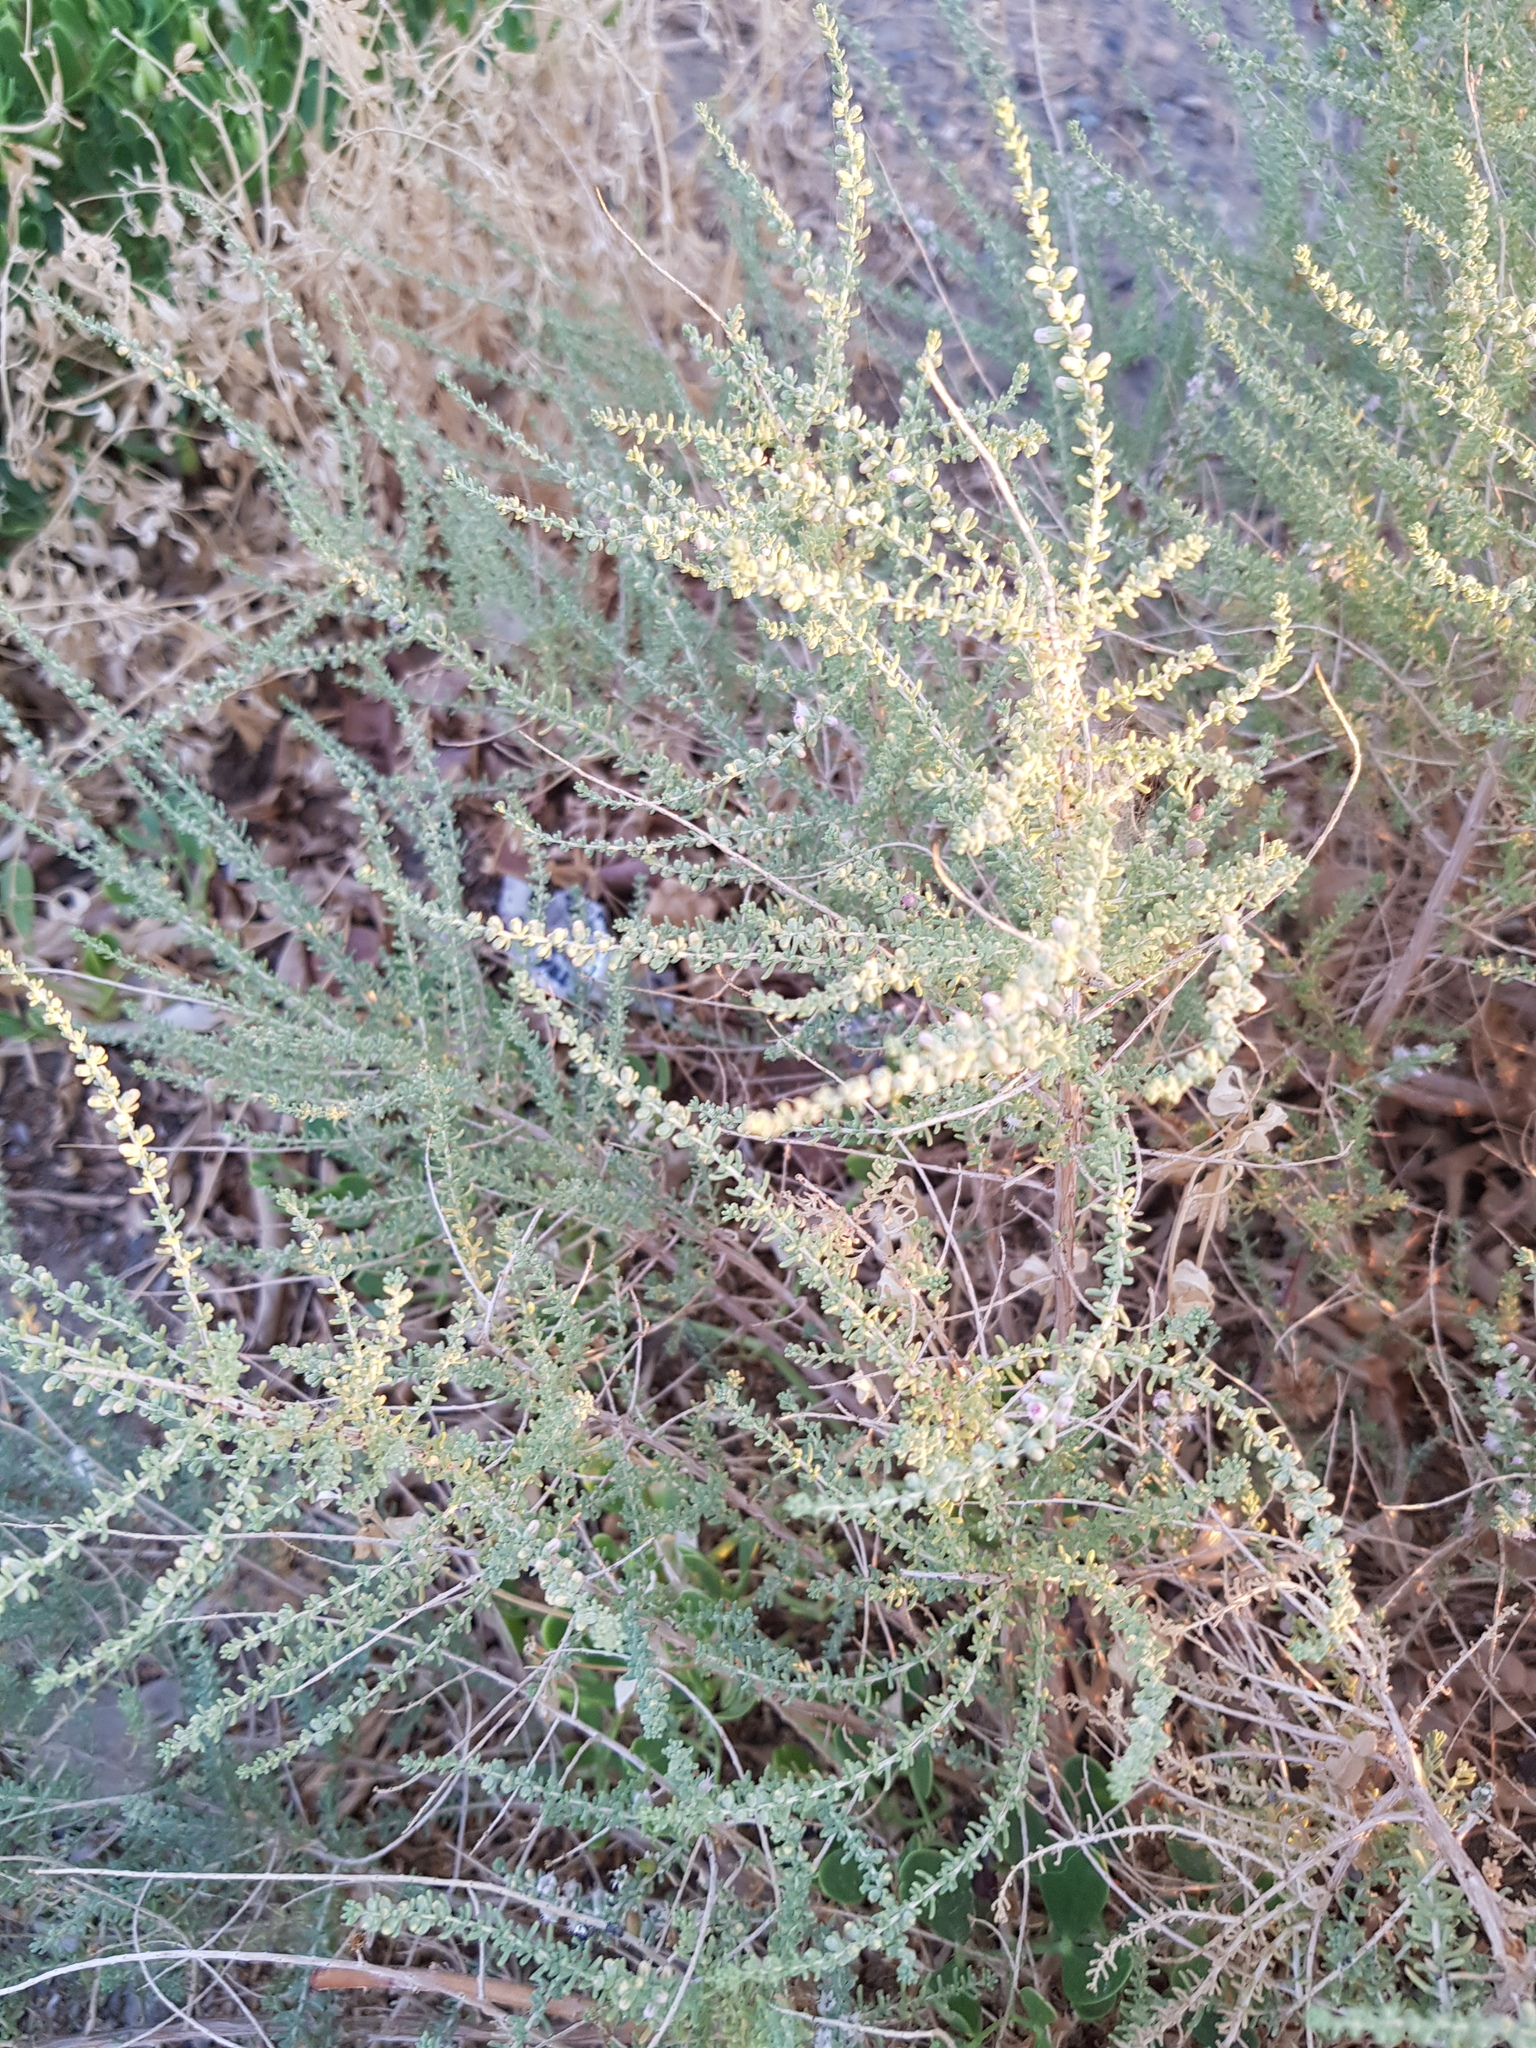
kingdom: Plantae
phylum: Tracheophyta
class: Magnoliopsida
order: Caryophyllales
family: Tamaricaceae
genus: Reaumuria
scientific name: Reaumuria songarica
